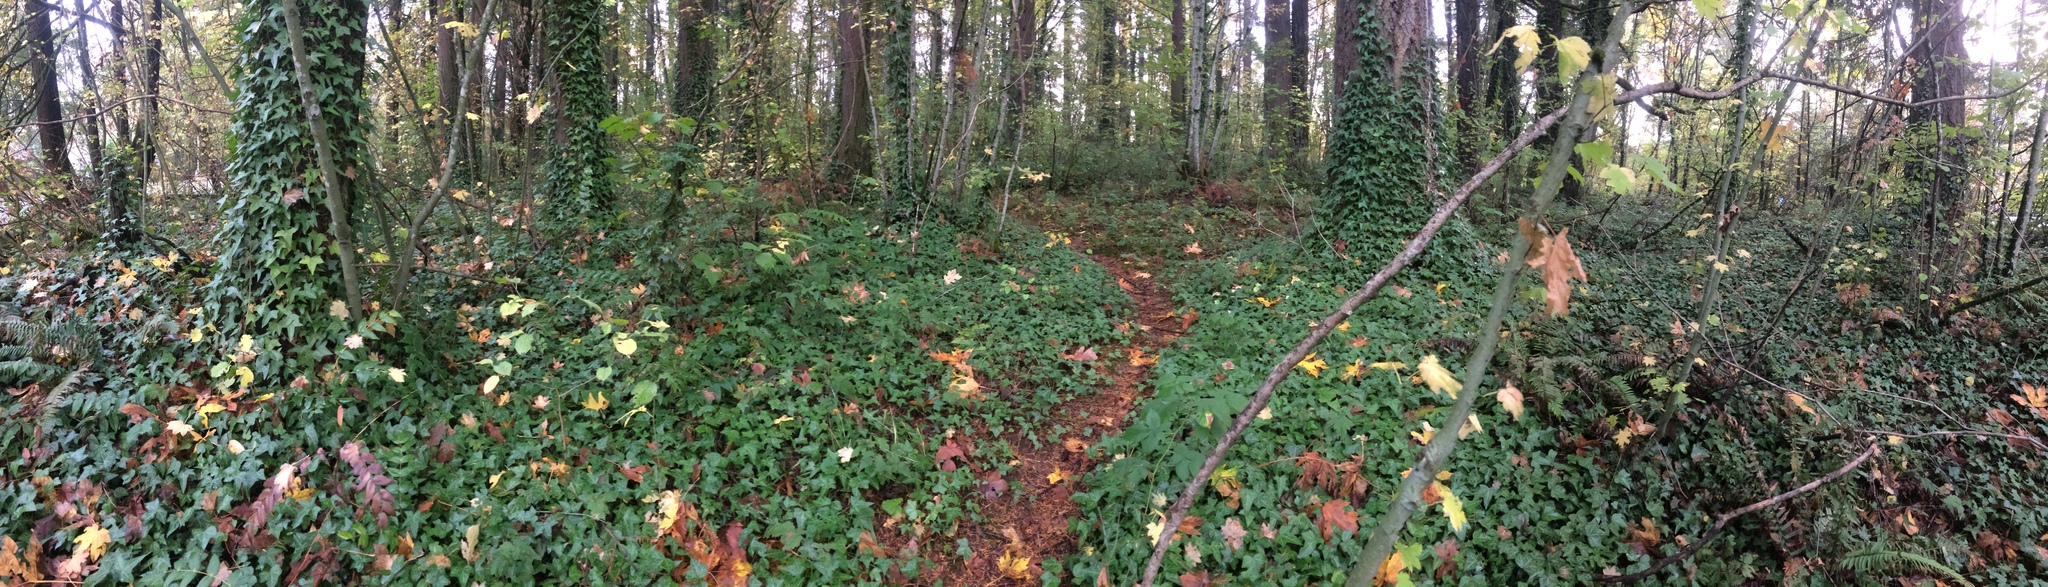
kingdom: Plantae
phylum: Tracheophyta
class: Magnoliopsida
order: Apiales
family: Araliaceae
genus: Hedera
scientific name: Hedera helix
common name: Ivy
